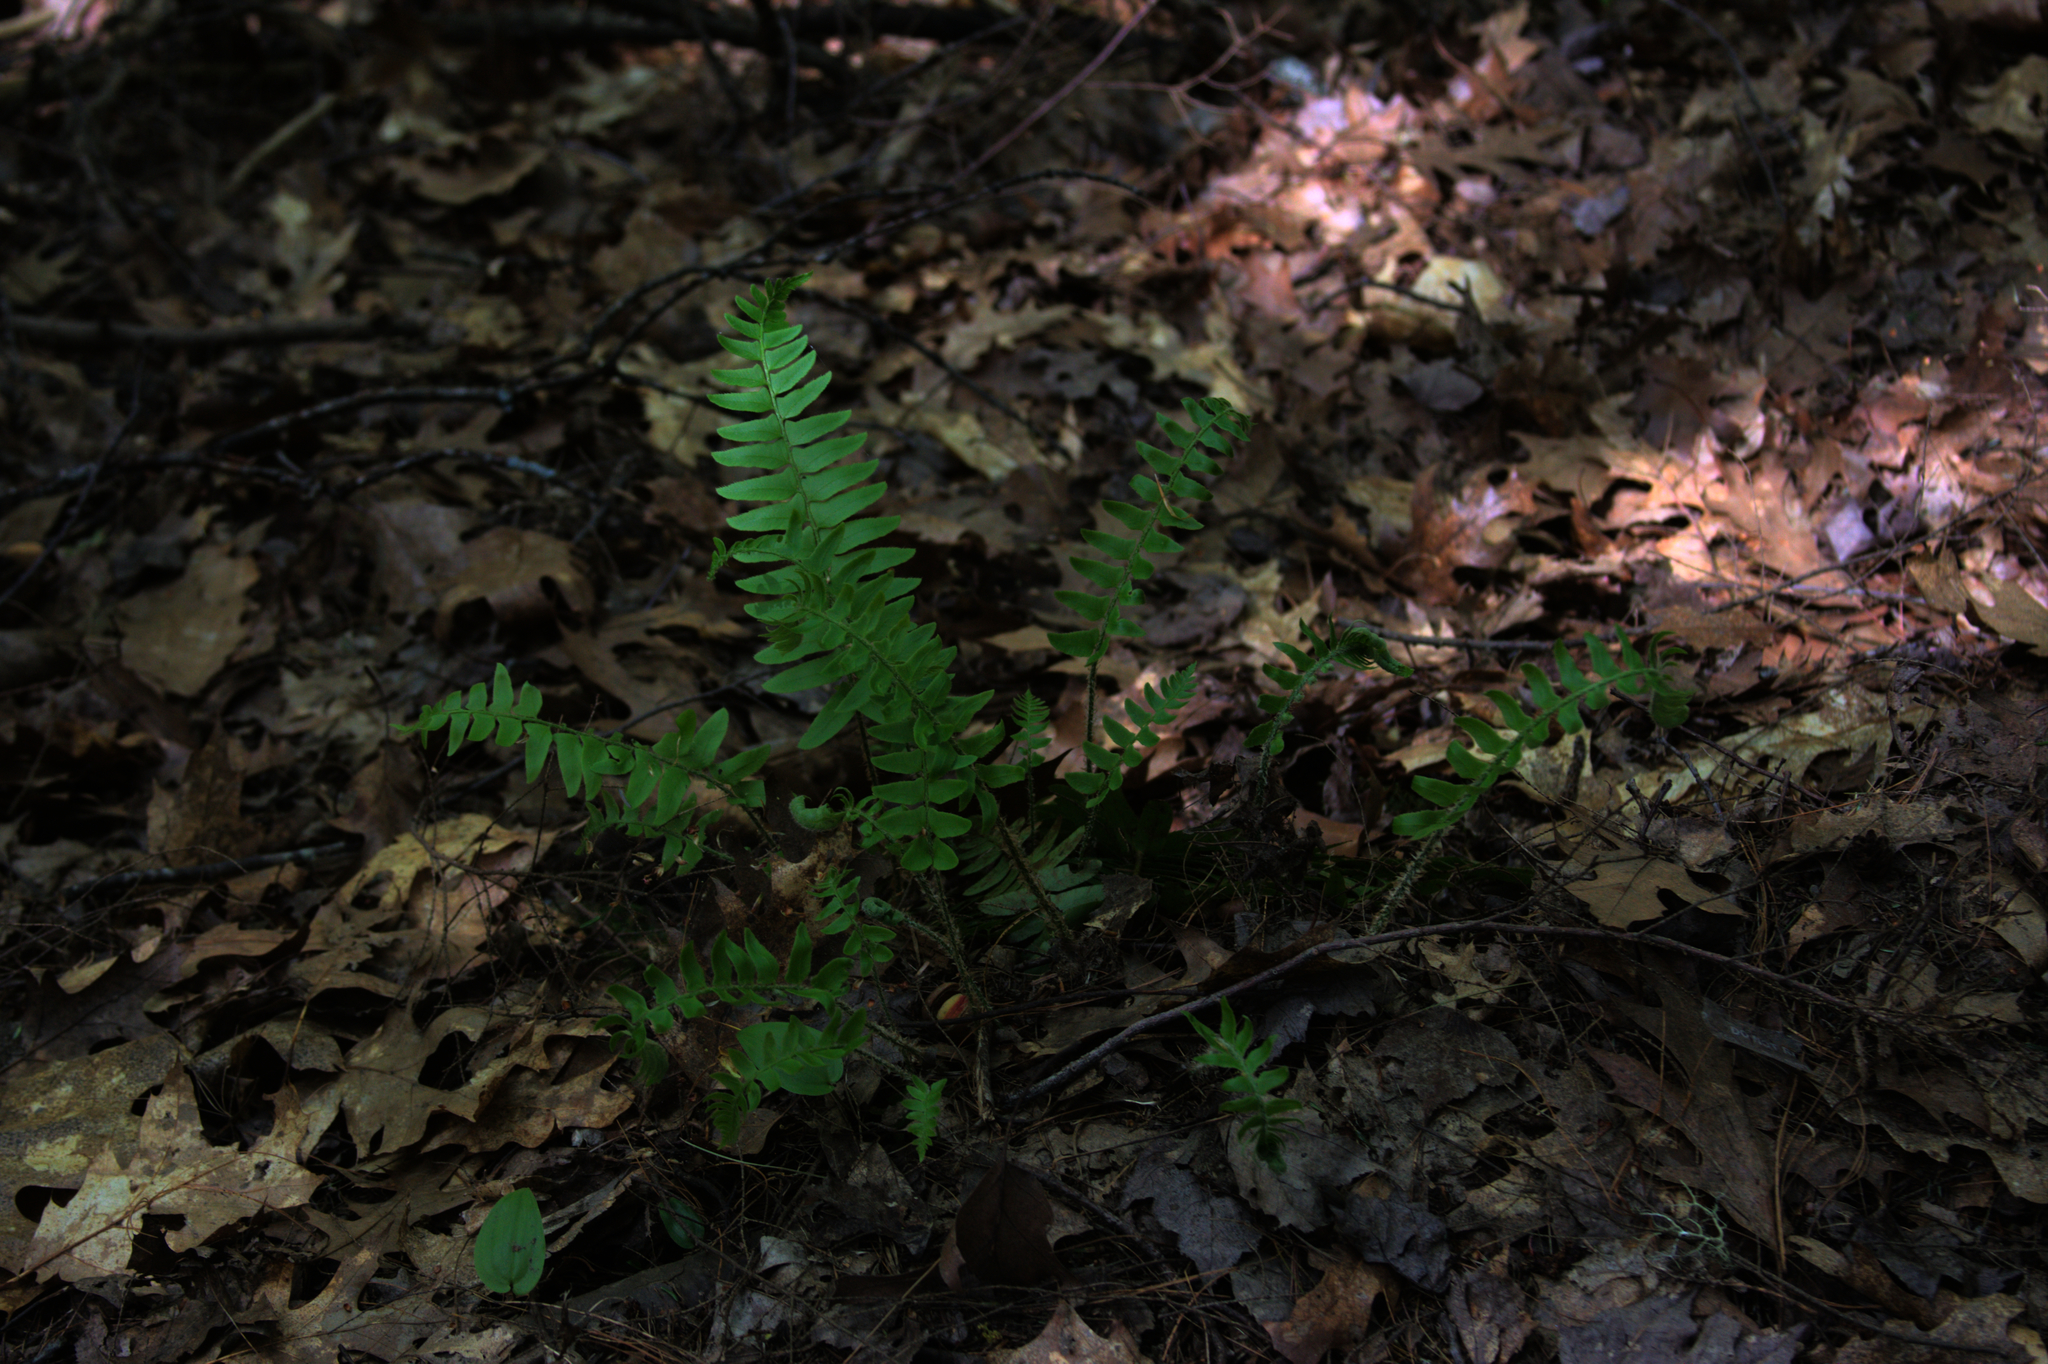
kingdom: Plantae
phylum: Tracheophyta
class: Polypodiopsida
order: Polypodiales
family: Dryopteridaceae
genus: Polystichum
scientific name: Polystichum acrostichoides
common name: Christmas fern
